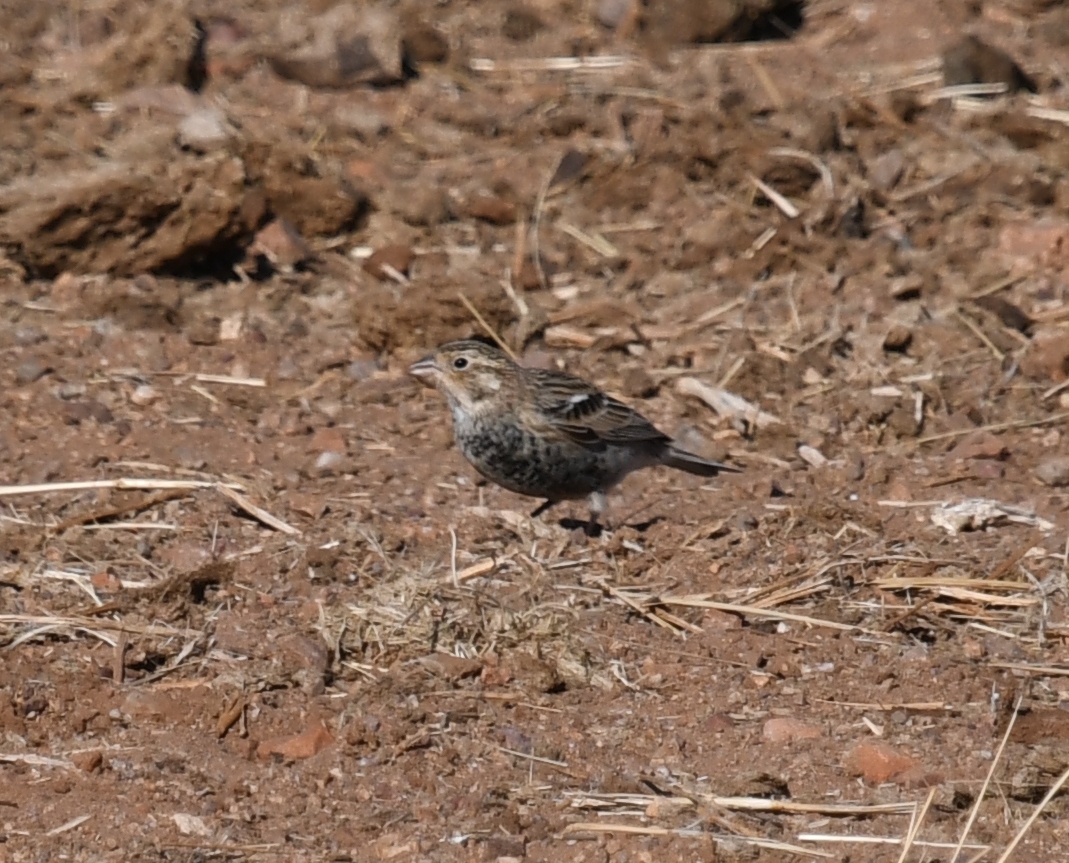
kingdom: Animalia
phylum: Chordata
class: Aves
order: Passeriformes
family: Calcariidae
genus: Calcarius
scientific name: Calcarius ornatus
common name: Chestnut-collared longspur
